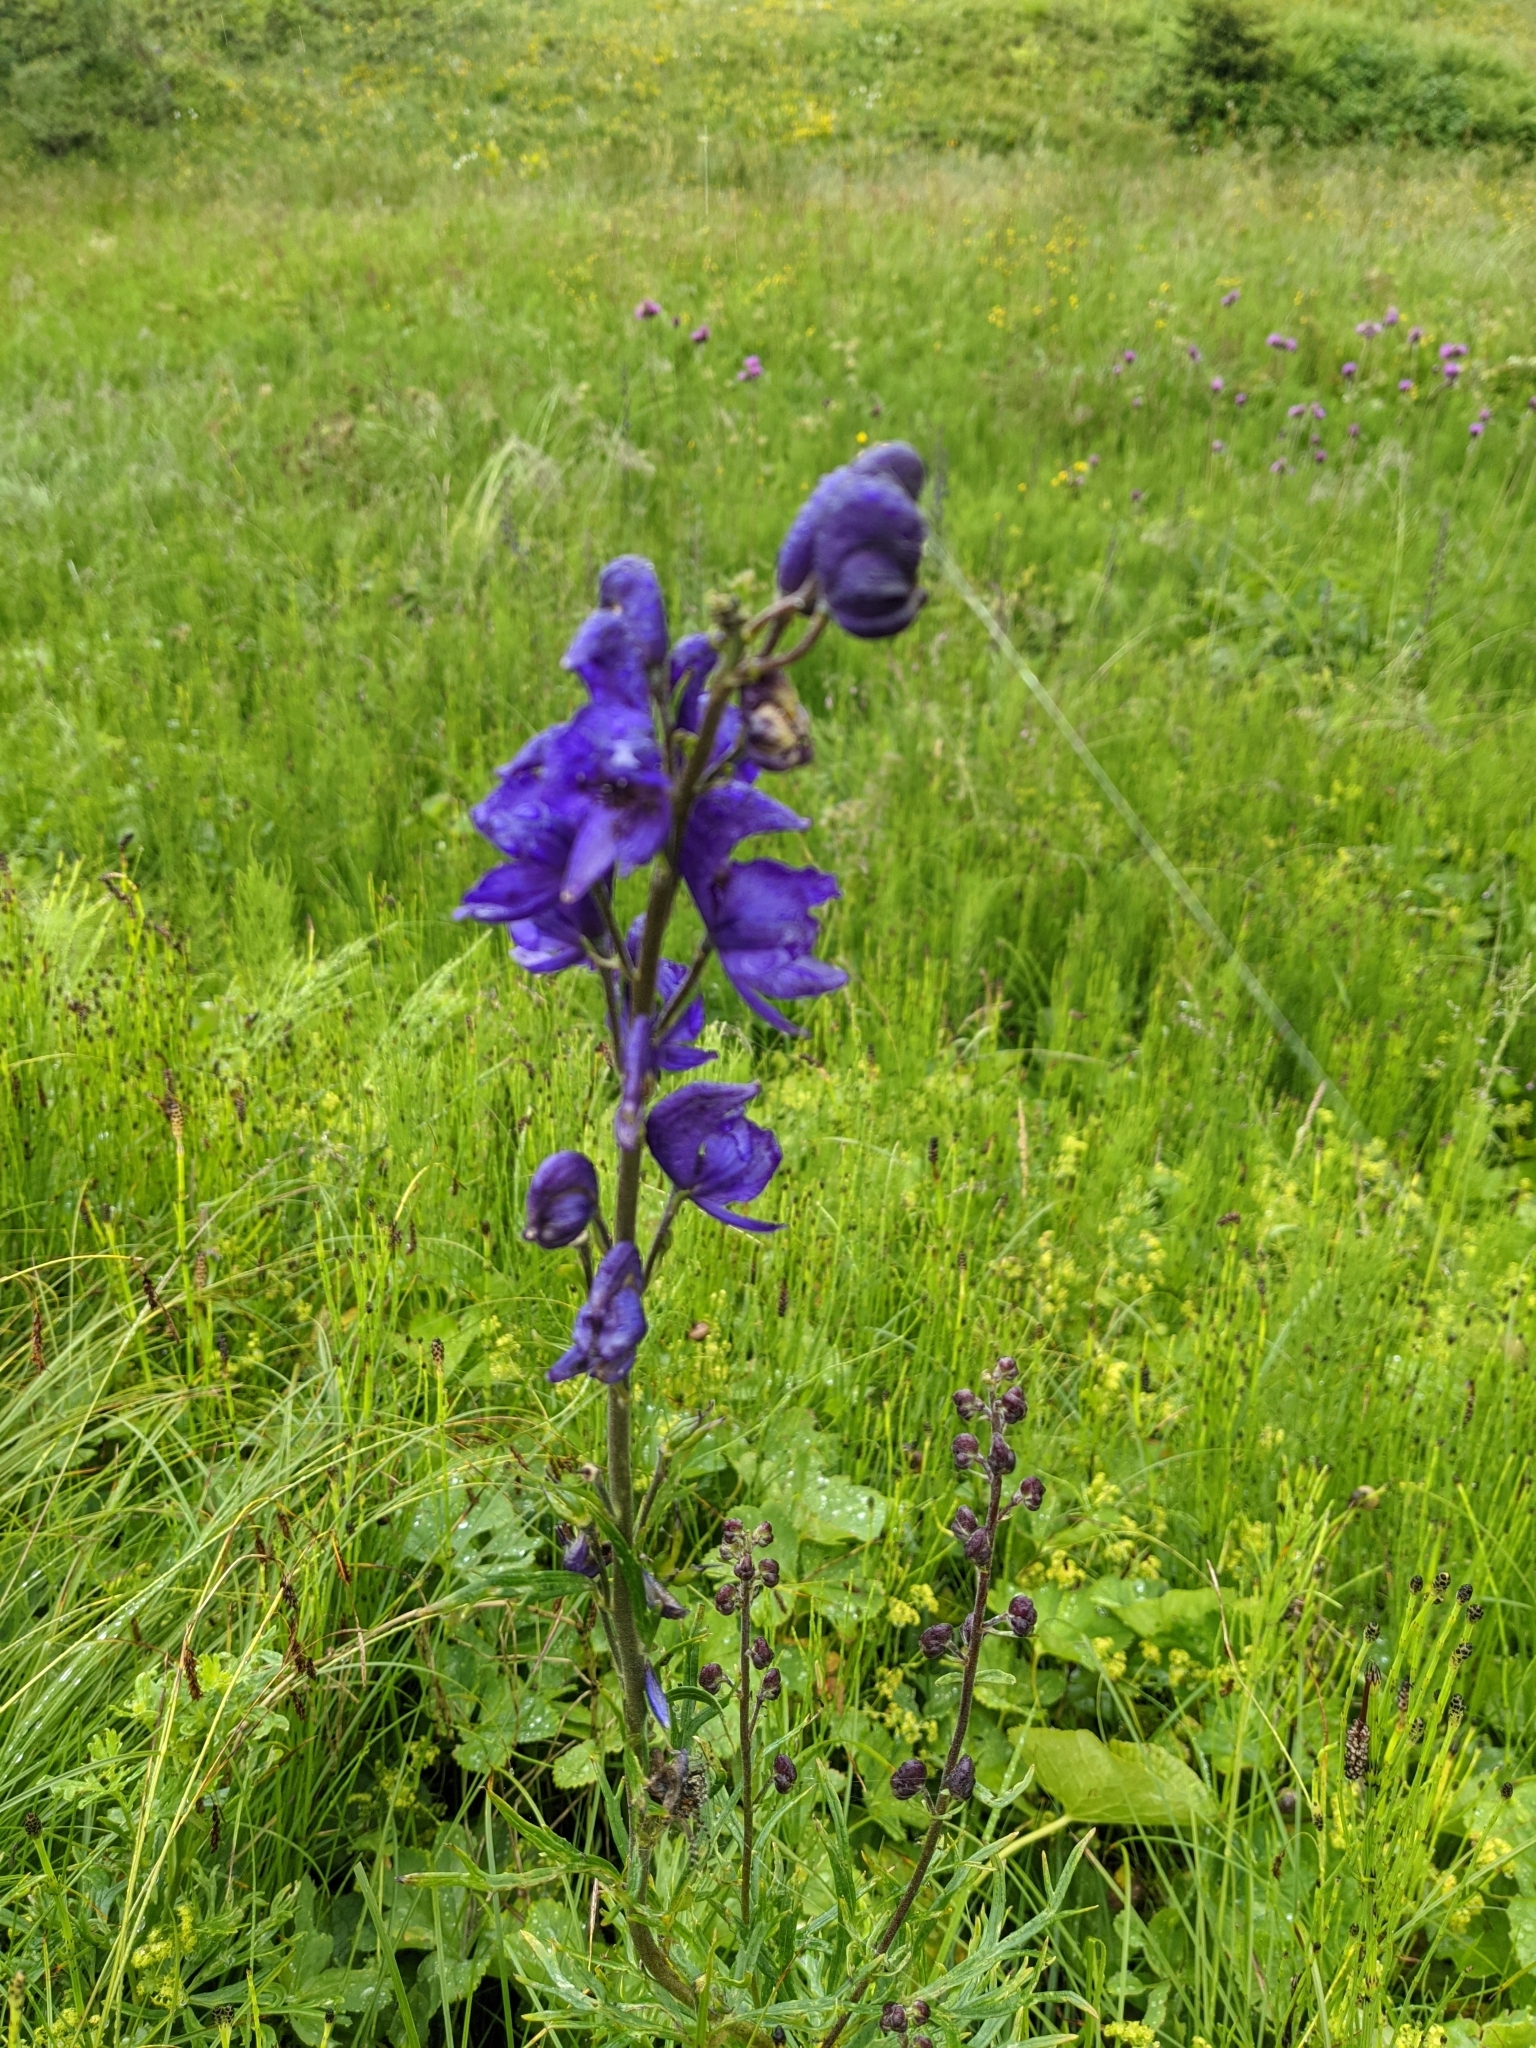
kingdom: Plantae
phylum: Tracheophyta
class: Magnoliopsida
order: Ranunculales
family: Ranunculaceae
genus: Aconitum
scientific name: Aconitum napellus
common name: Garden monkshood
